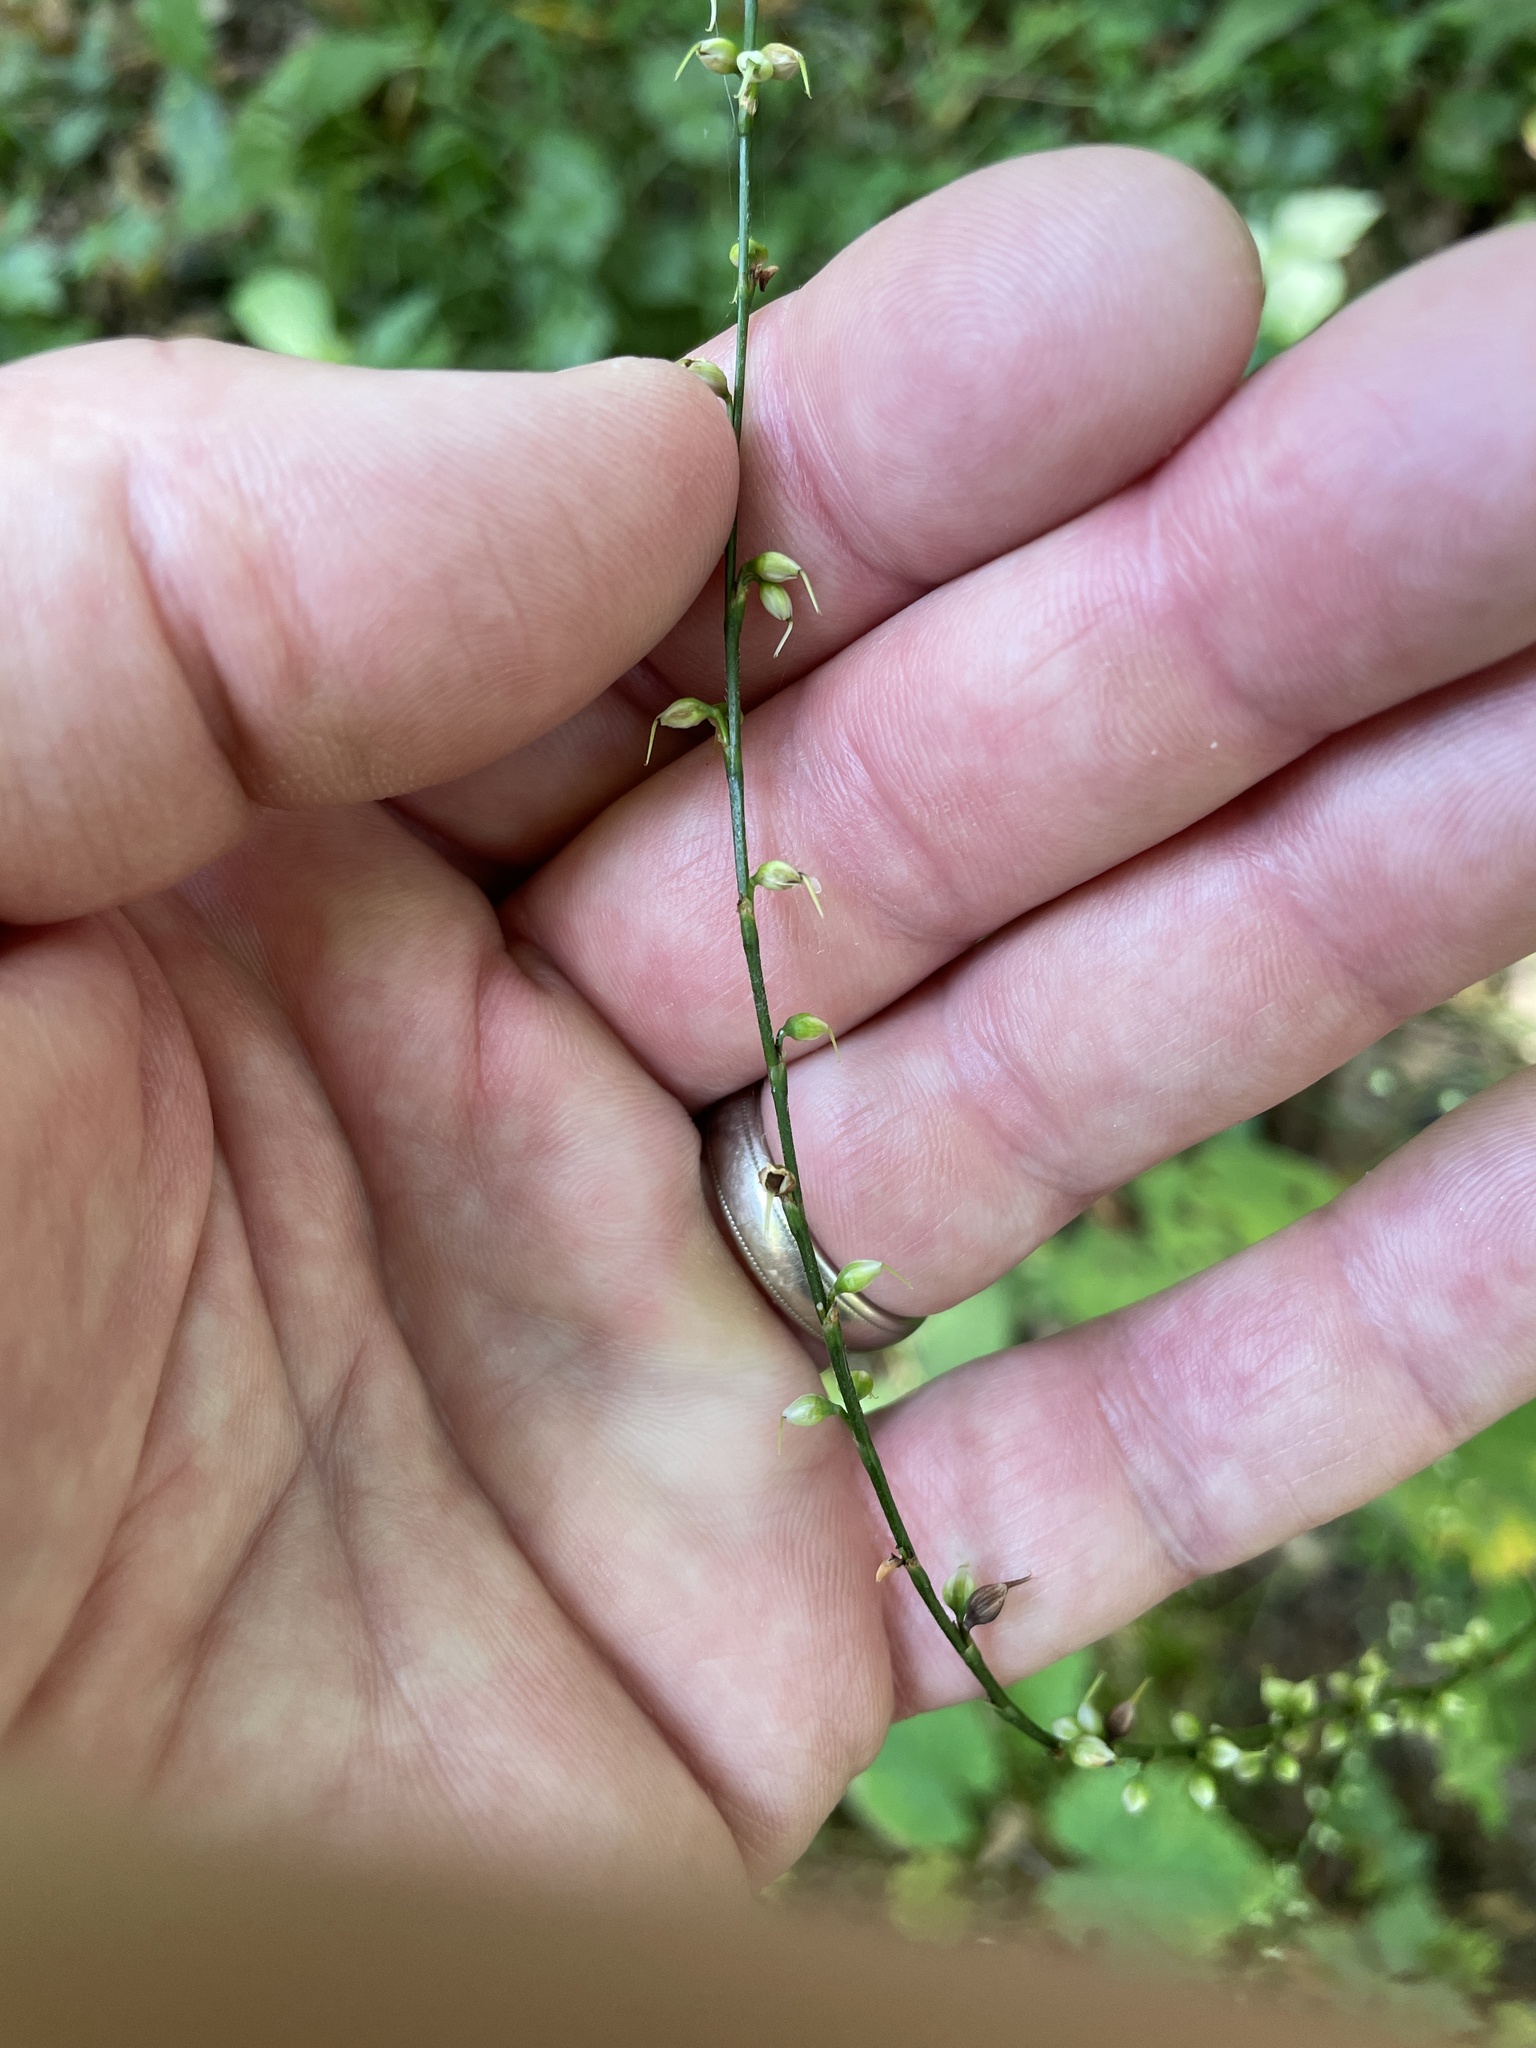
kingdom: Plantae
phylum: Tracheophyta
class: Magnoliopsida
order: Caryophyllales
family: Polygonaceae
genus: Persicaria
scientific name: Persicaria virginiana
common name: Jumpseed
